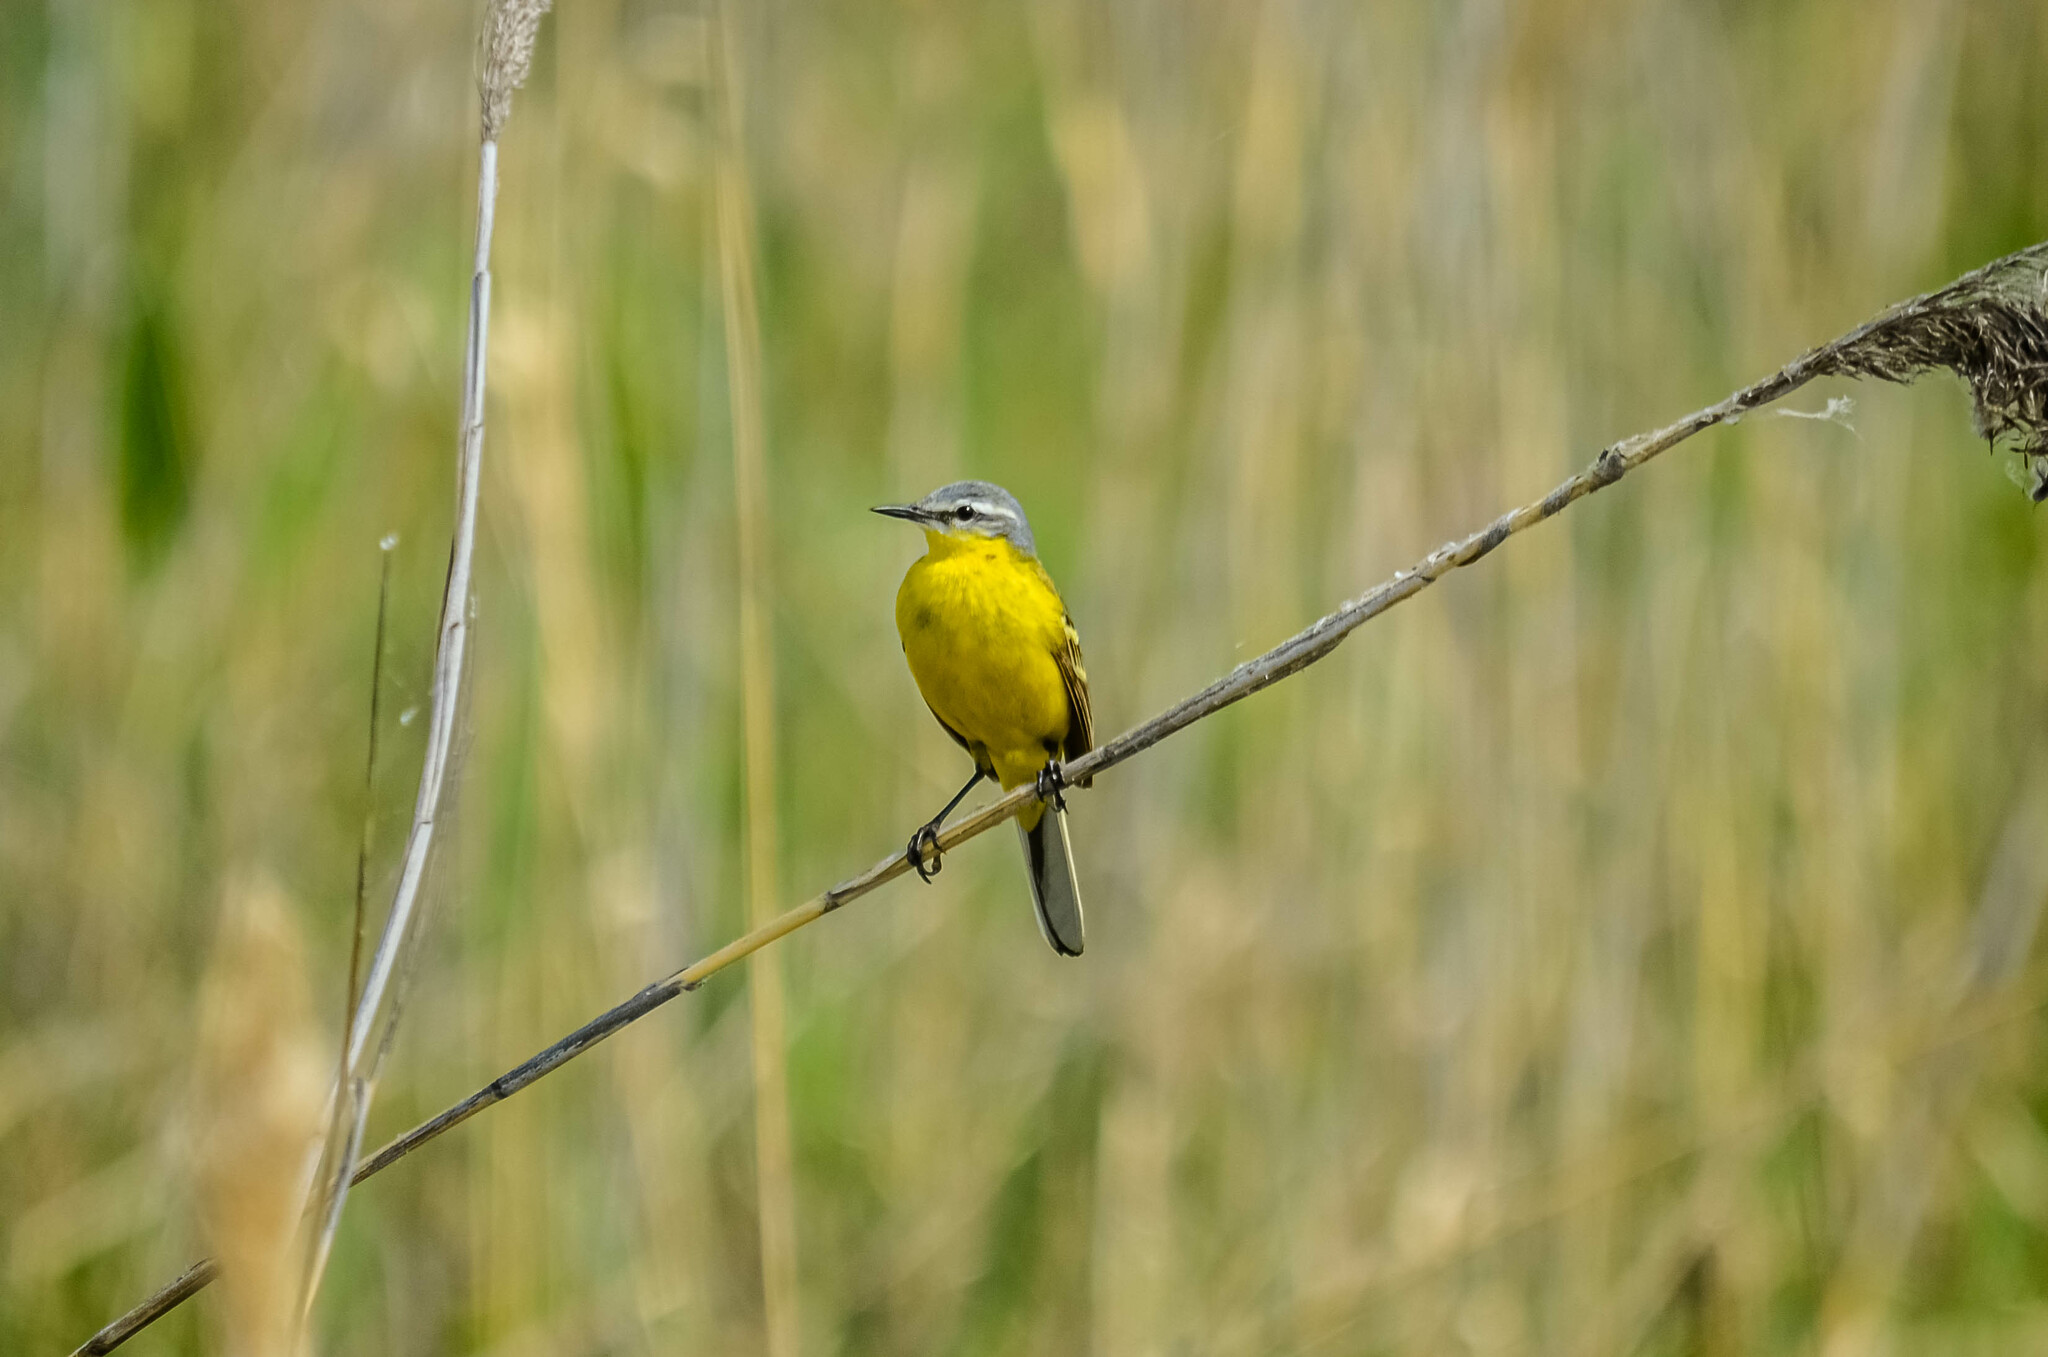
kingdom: Animalia
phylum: Chordata
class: Aves
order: Passeriformes
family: Motacillidae
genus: Motacilla
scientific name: Motacilla flava
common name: Western yellow wagtail
